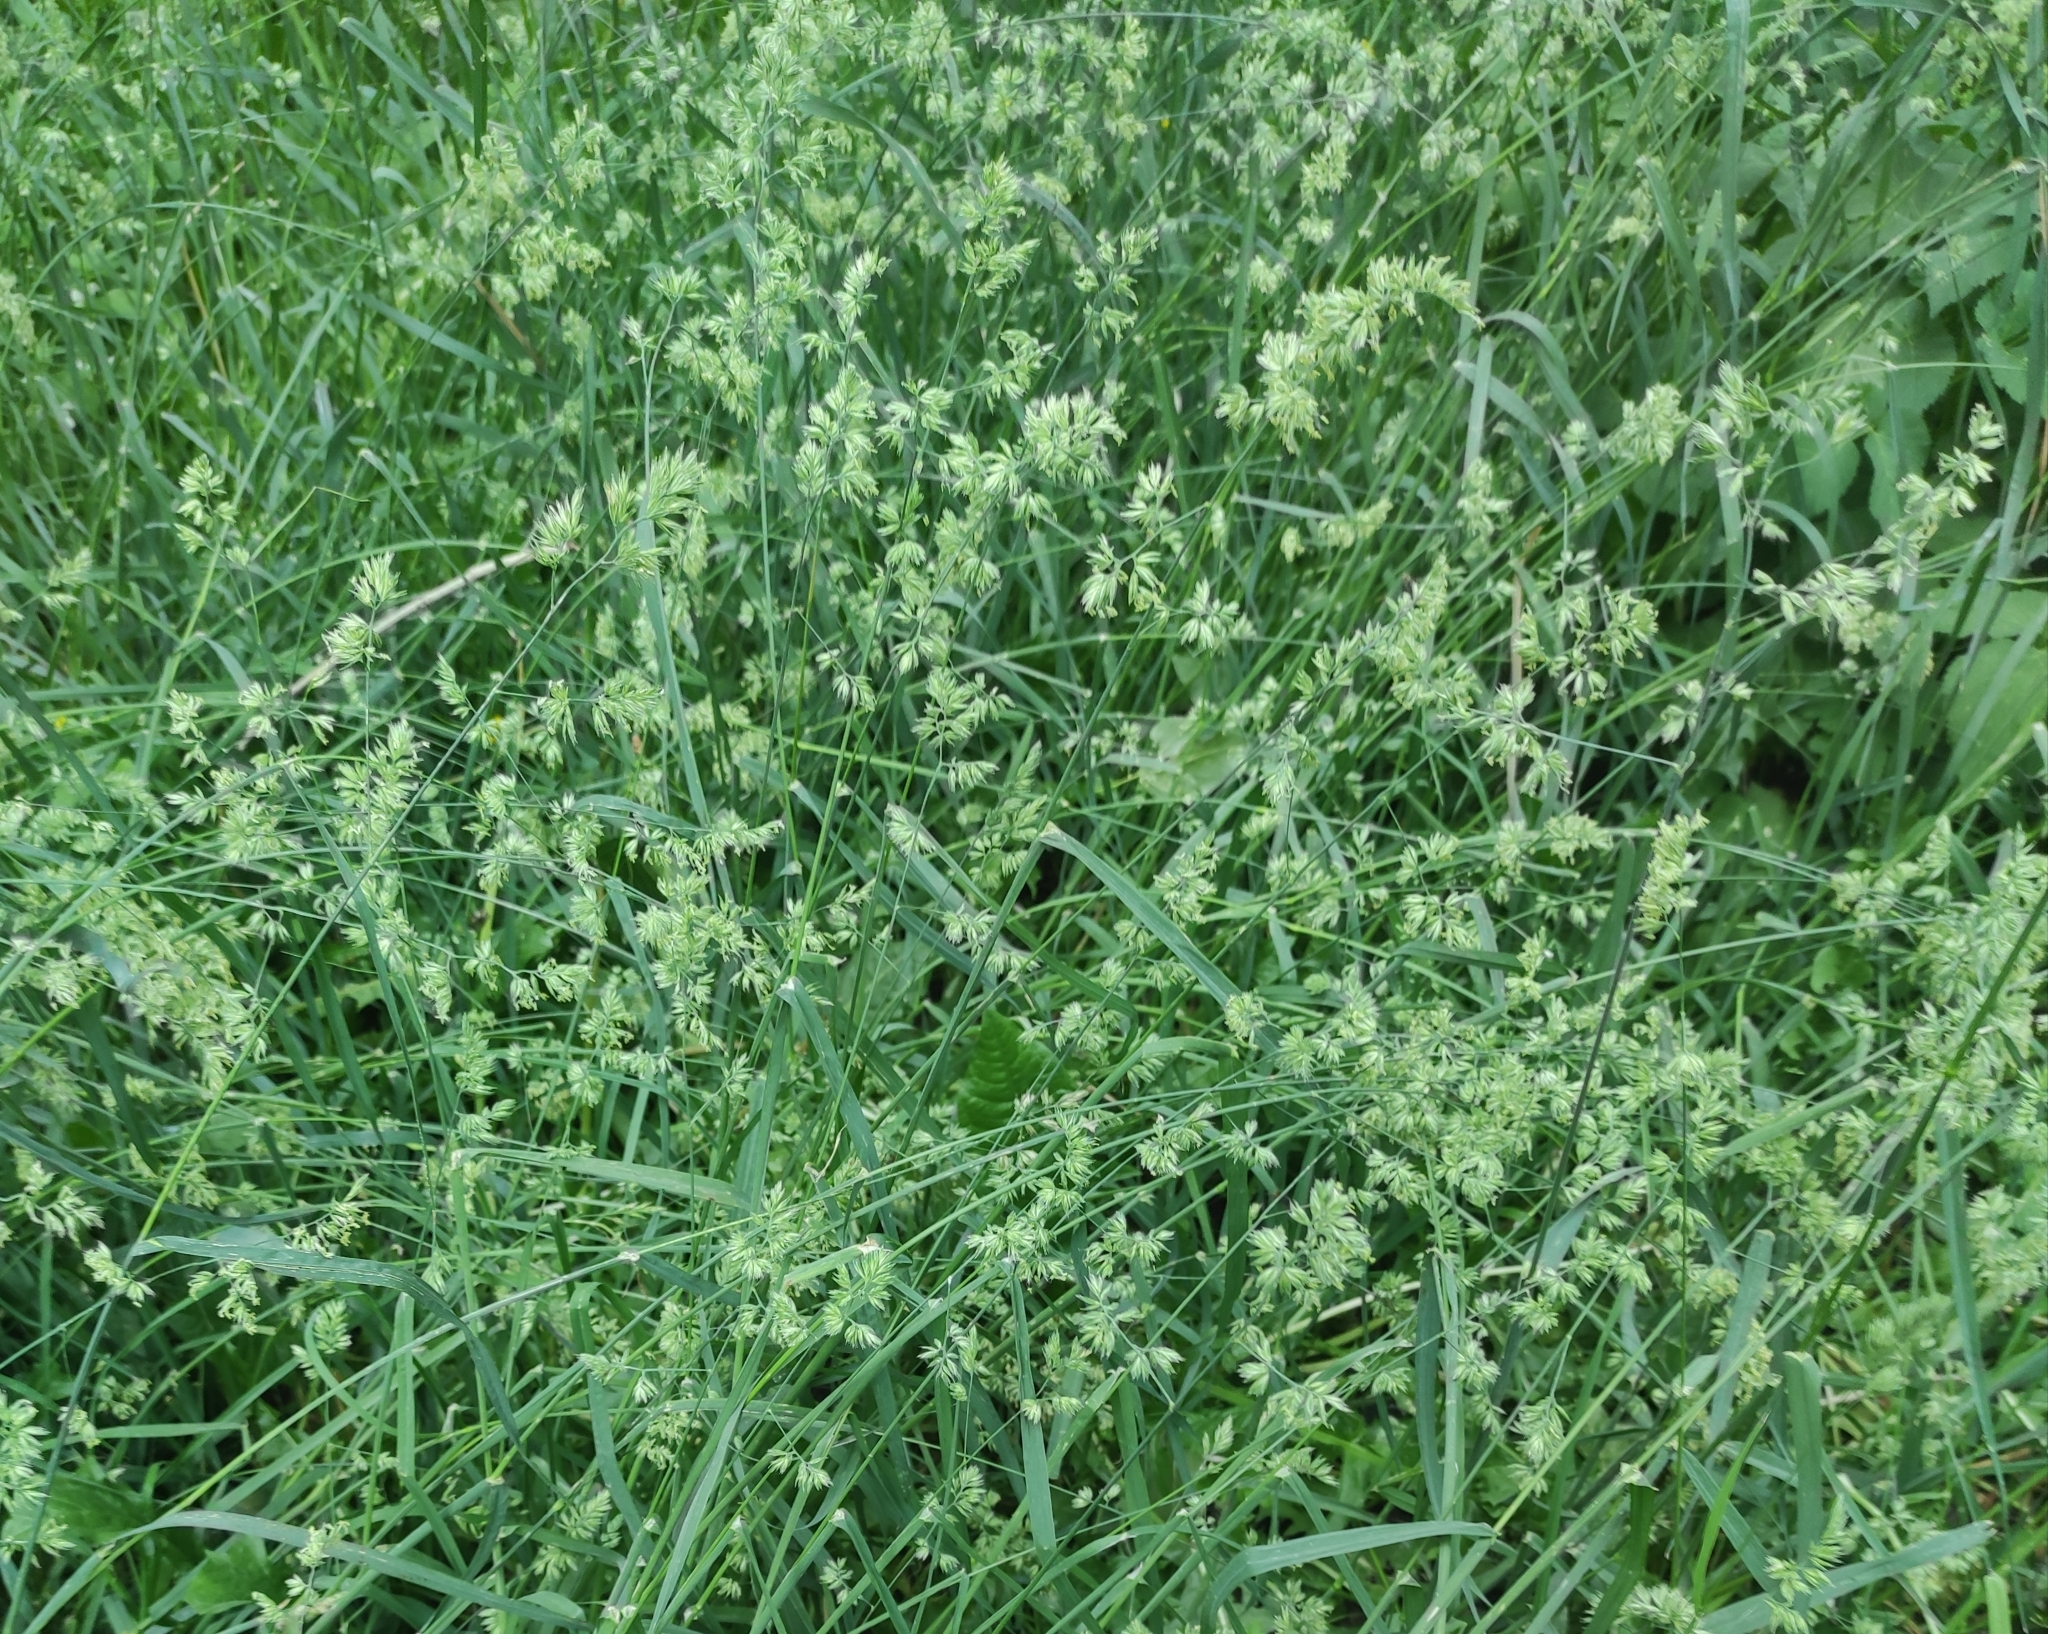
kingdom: Plantae
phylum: Tracheophyta
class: Liliopsida
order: Poales
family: Poaceae
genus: Dactylis
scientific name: Dactylis glomerata
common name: Orchardgrass
